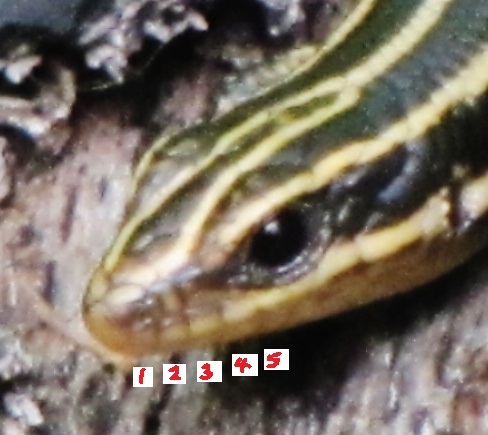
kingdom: Animalia
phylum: Chordata
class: Squamata
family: Scincidae
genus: Plestiodon
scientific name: Plestiodon fasciatus
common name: Five-lined skink
